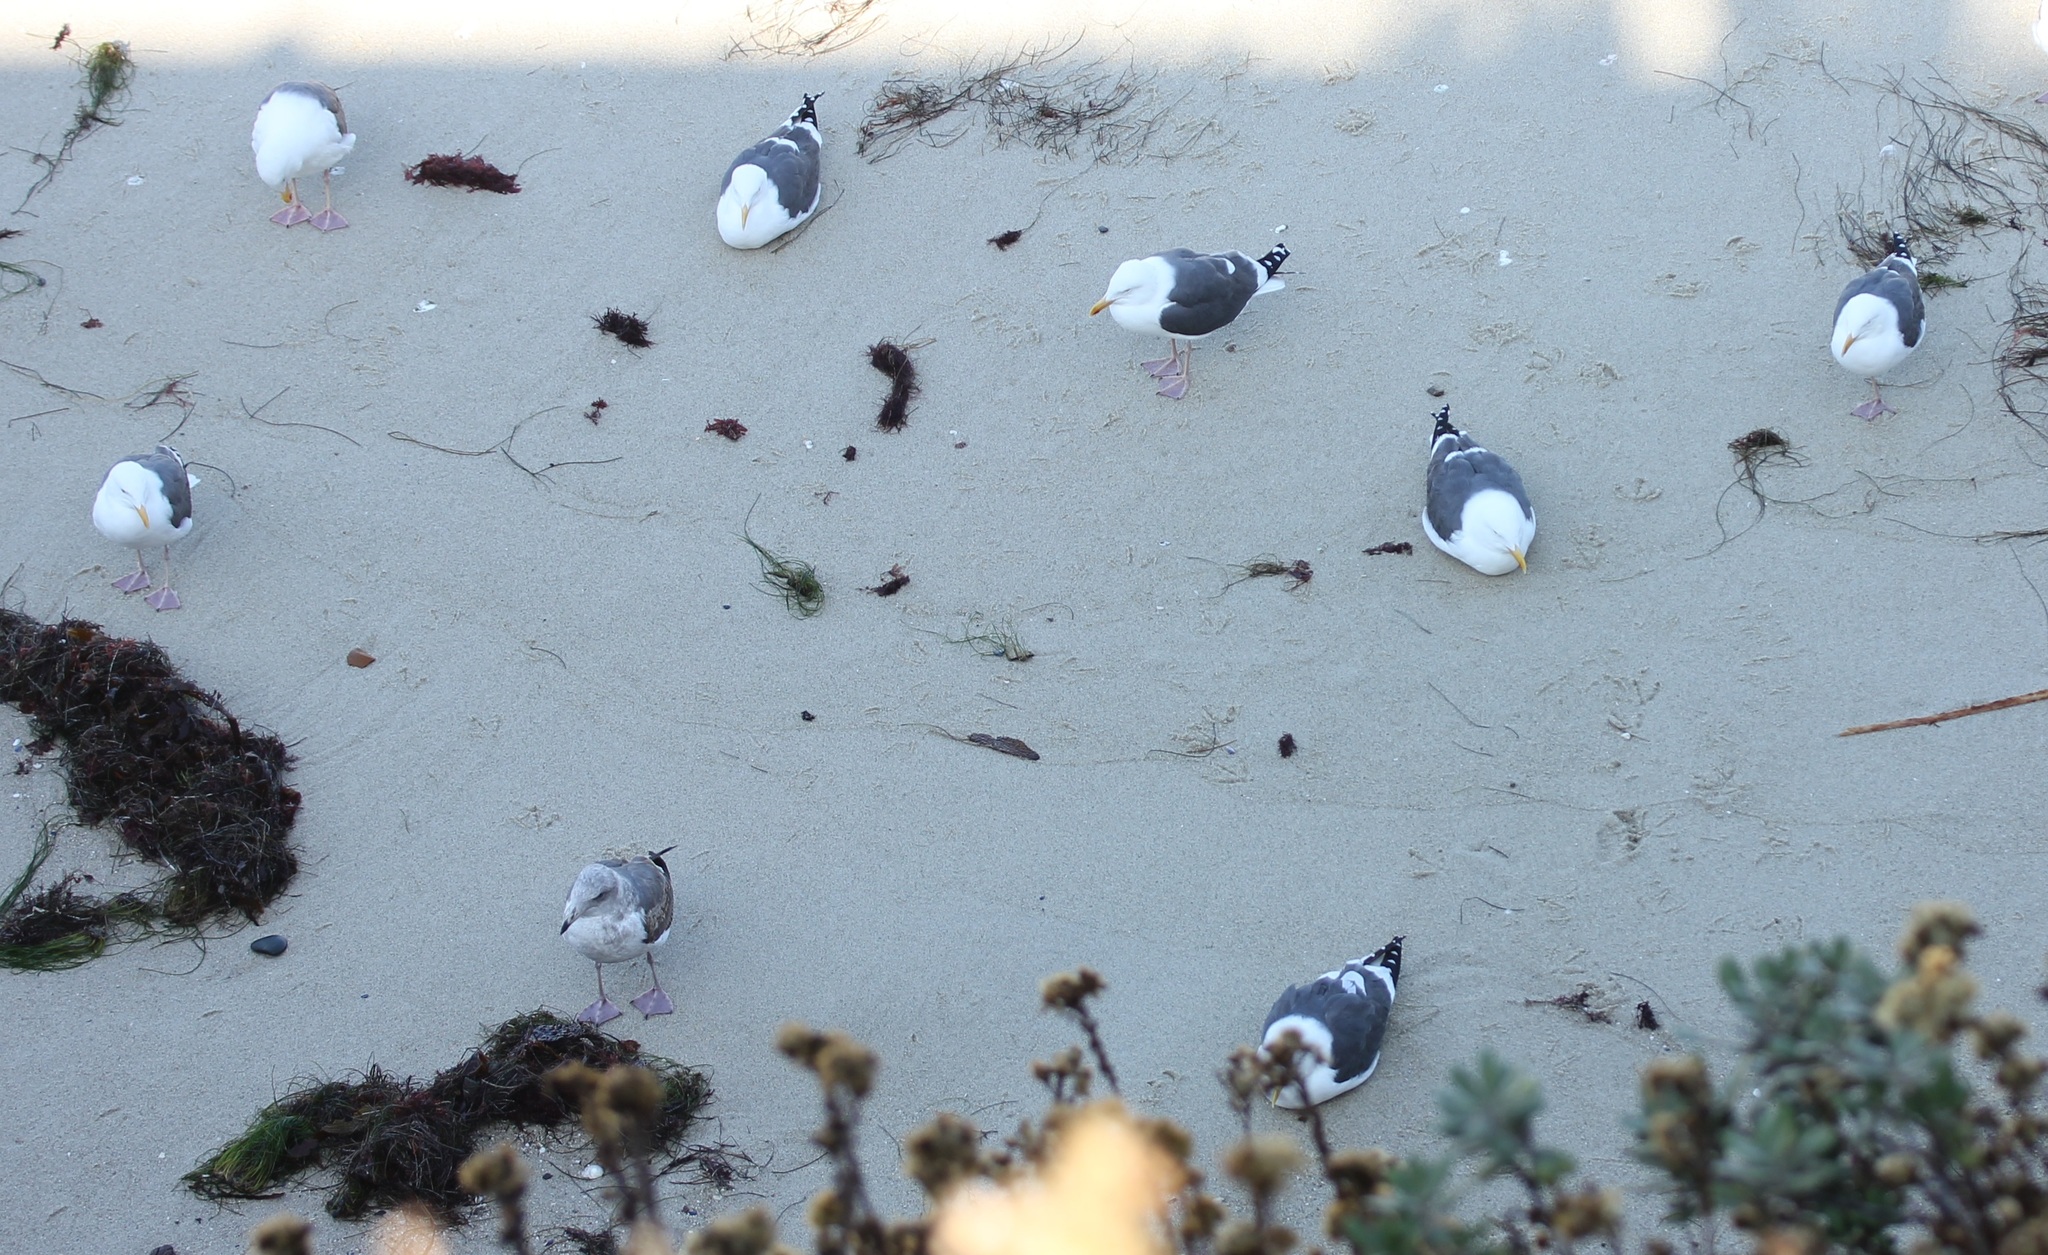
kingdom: Animalia
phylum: Chordata
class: Aves
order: Charadriiformes
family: Laridae
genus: Larus
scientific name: Larus occidentalis
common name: Western gull
